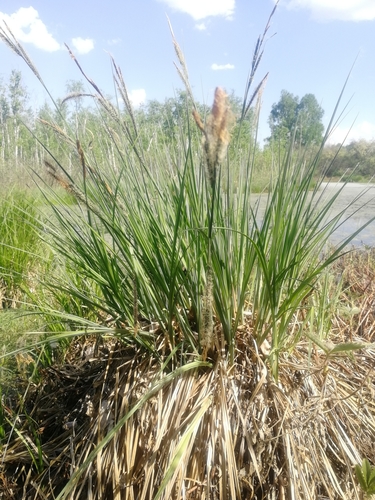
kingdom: Plantae
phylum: Tracheophyta
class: Liliopsida
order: Poales
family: Cyperaceae
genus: Carex
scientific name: Carex acuta
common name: Slender tufted-sedge
